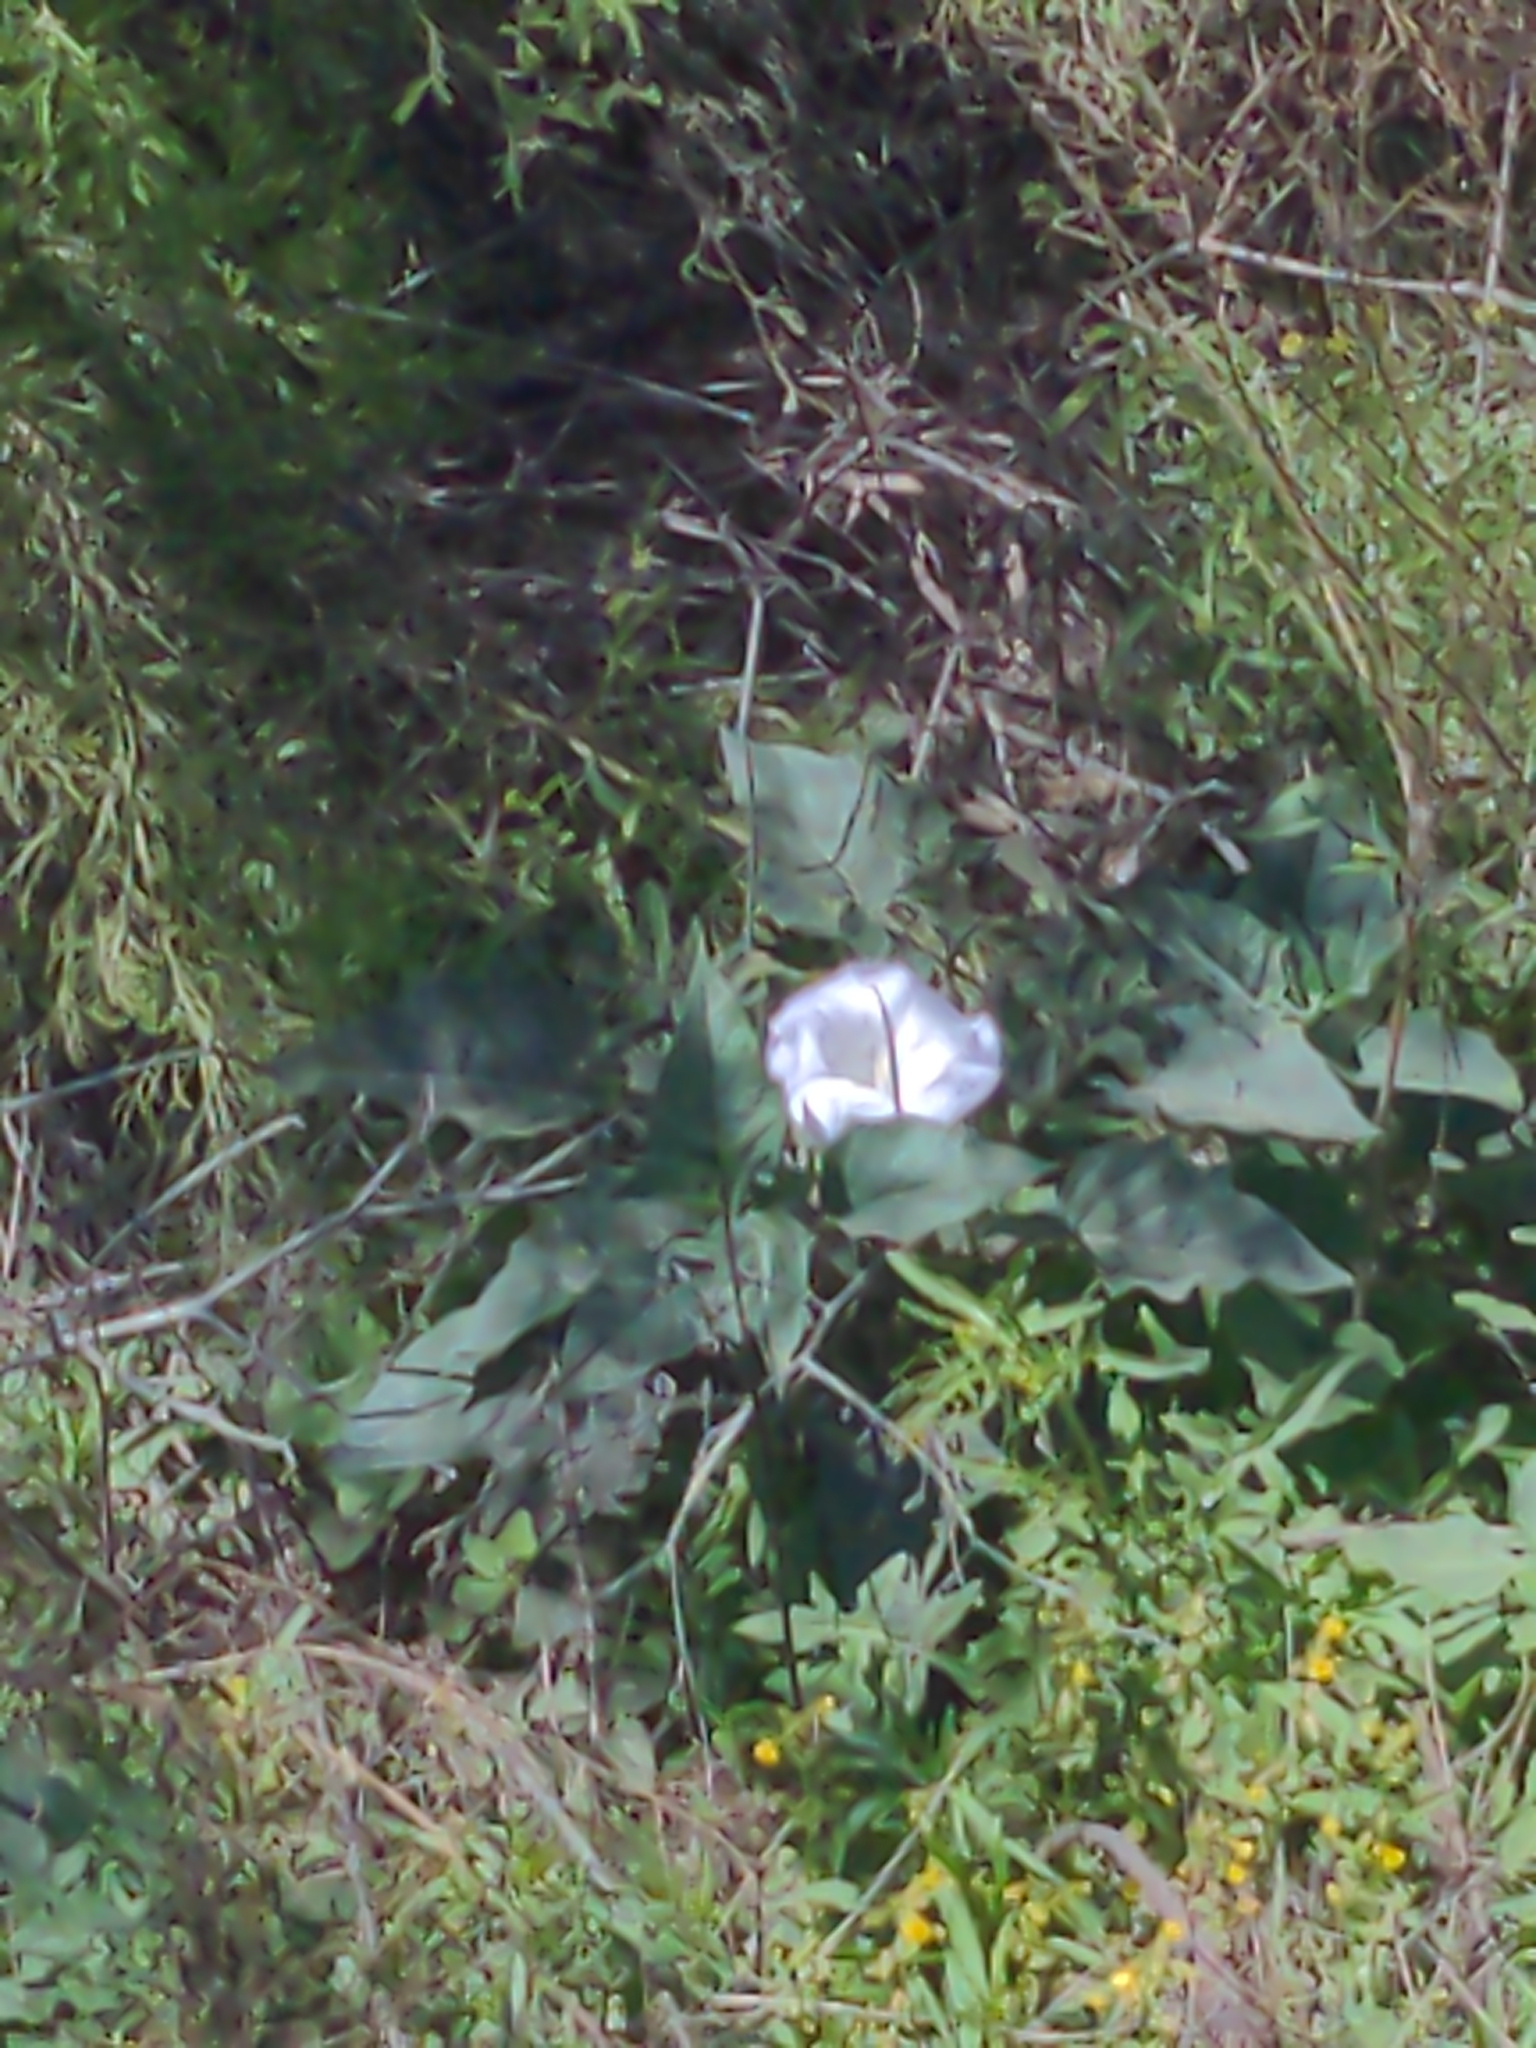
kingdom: Plantae
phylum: Tracheophyta
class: Magnoliopsida
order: Solanales
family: Solanaceae
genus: Datura
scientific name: Datura wrightii
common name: Sacred thorn-apple
